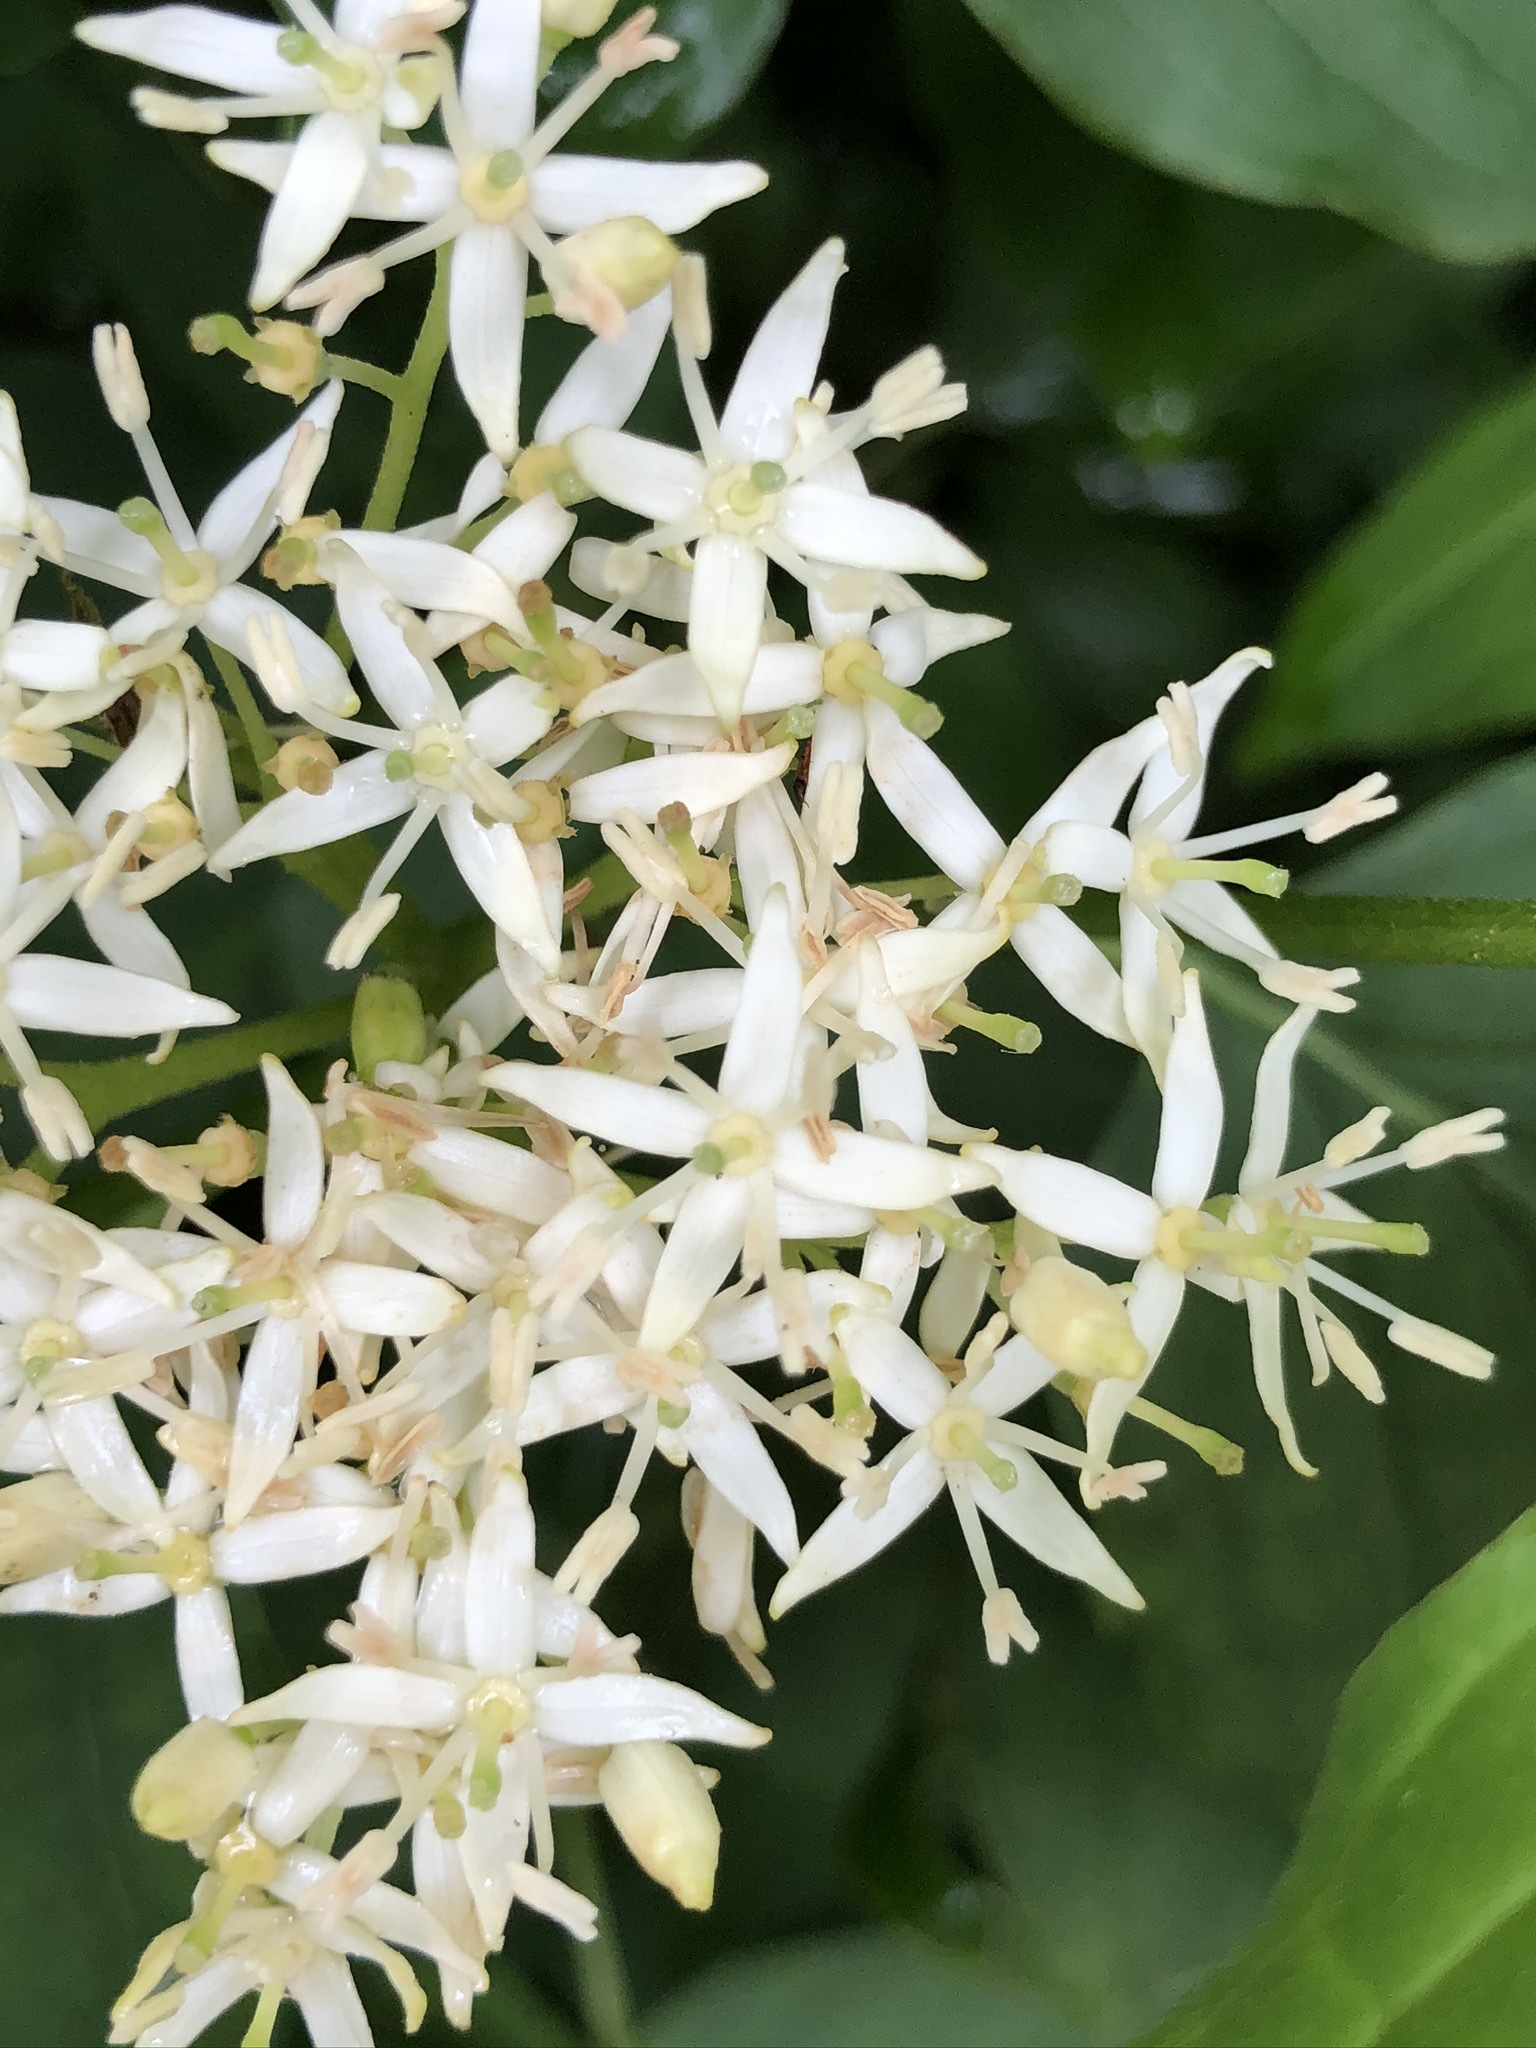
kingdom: Plantae
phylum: Tracheophyta
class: Magnoliopsida
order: Cornales
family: Cornaceae
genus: Cornus
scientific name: Cornus sanguinea
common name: Dogwood
